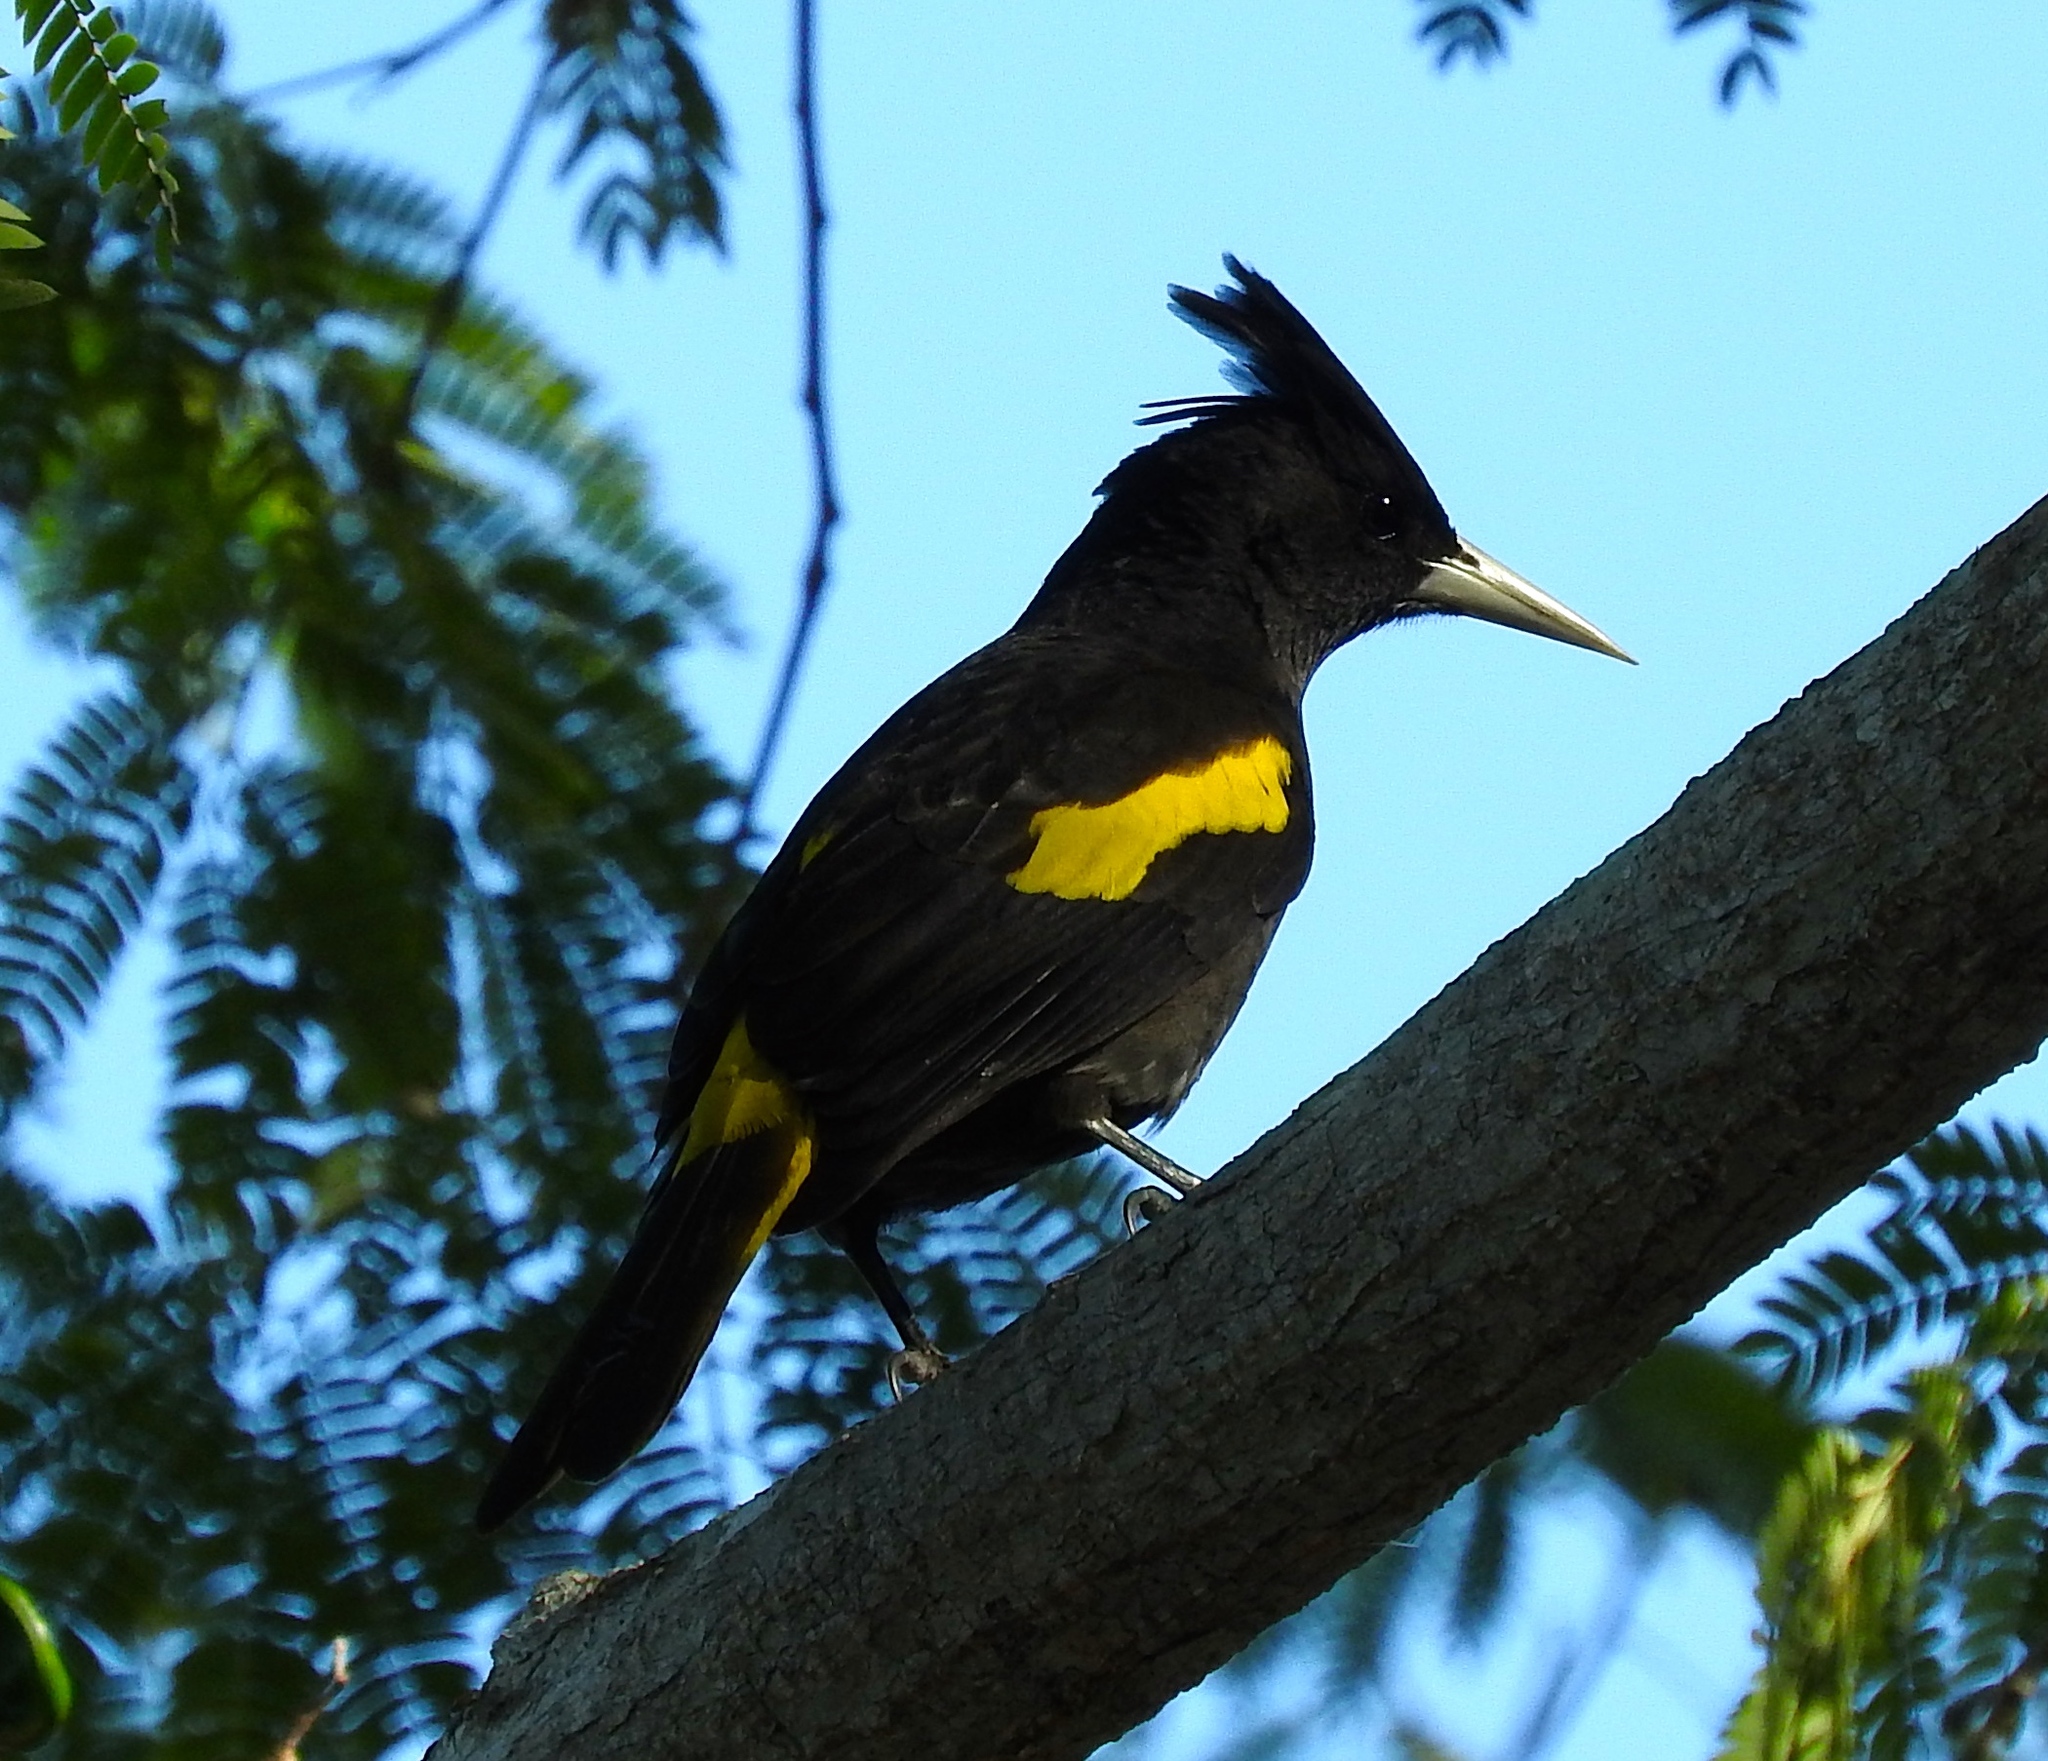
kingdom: Animalia
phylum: Chordata
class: Aves
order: Passeriformes
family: Icteridae
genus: Cacicus
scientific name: Cacicus melanicterus
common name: Yellow-winged cacique
